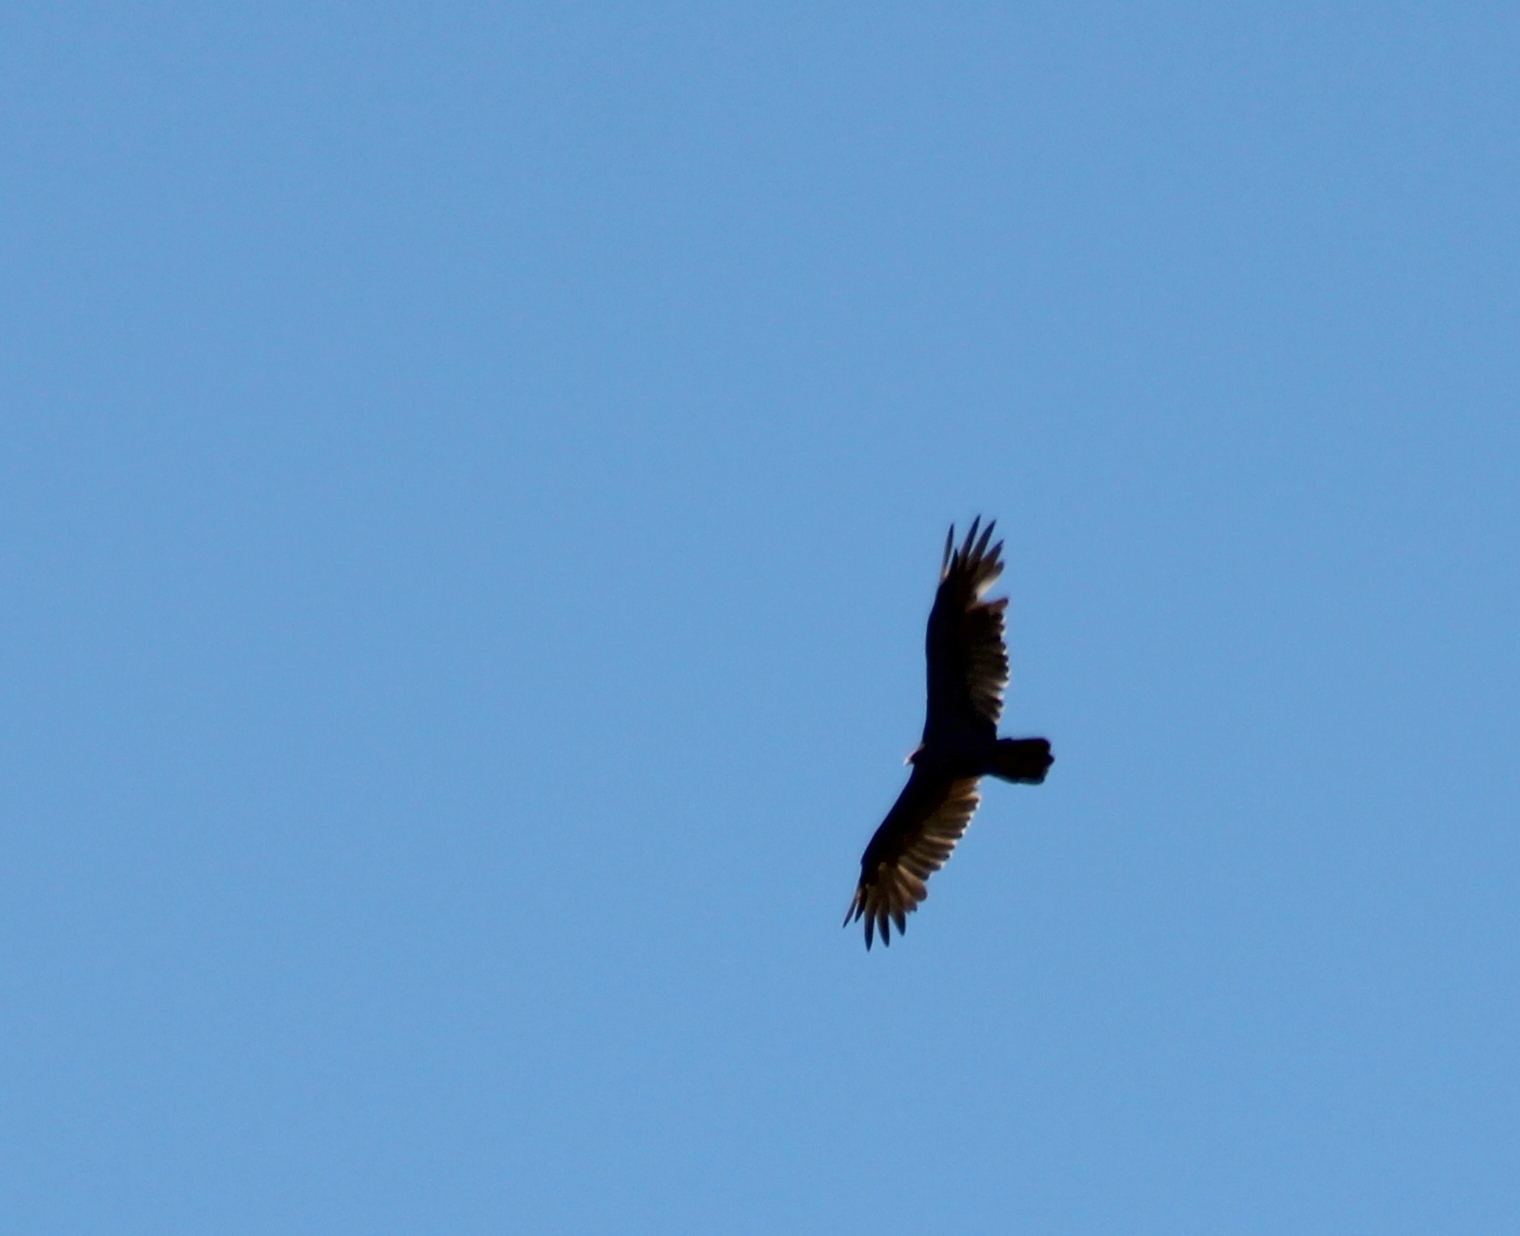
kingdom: Animalia
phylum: Chordata
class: Aves
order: Accipitriformes
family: Cathartidae
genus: Cathartes
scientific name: Cathartes aura
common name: Turkey vulture
